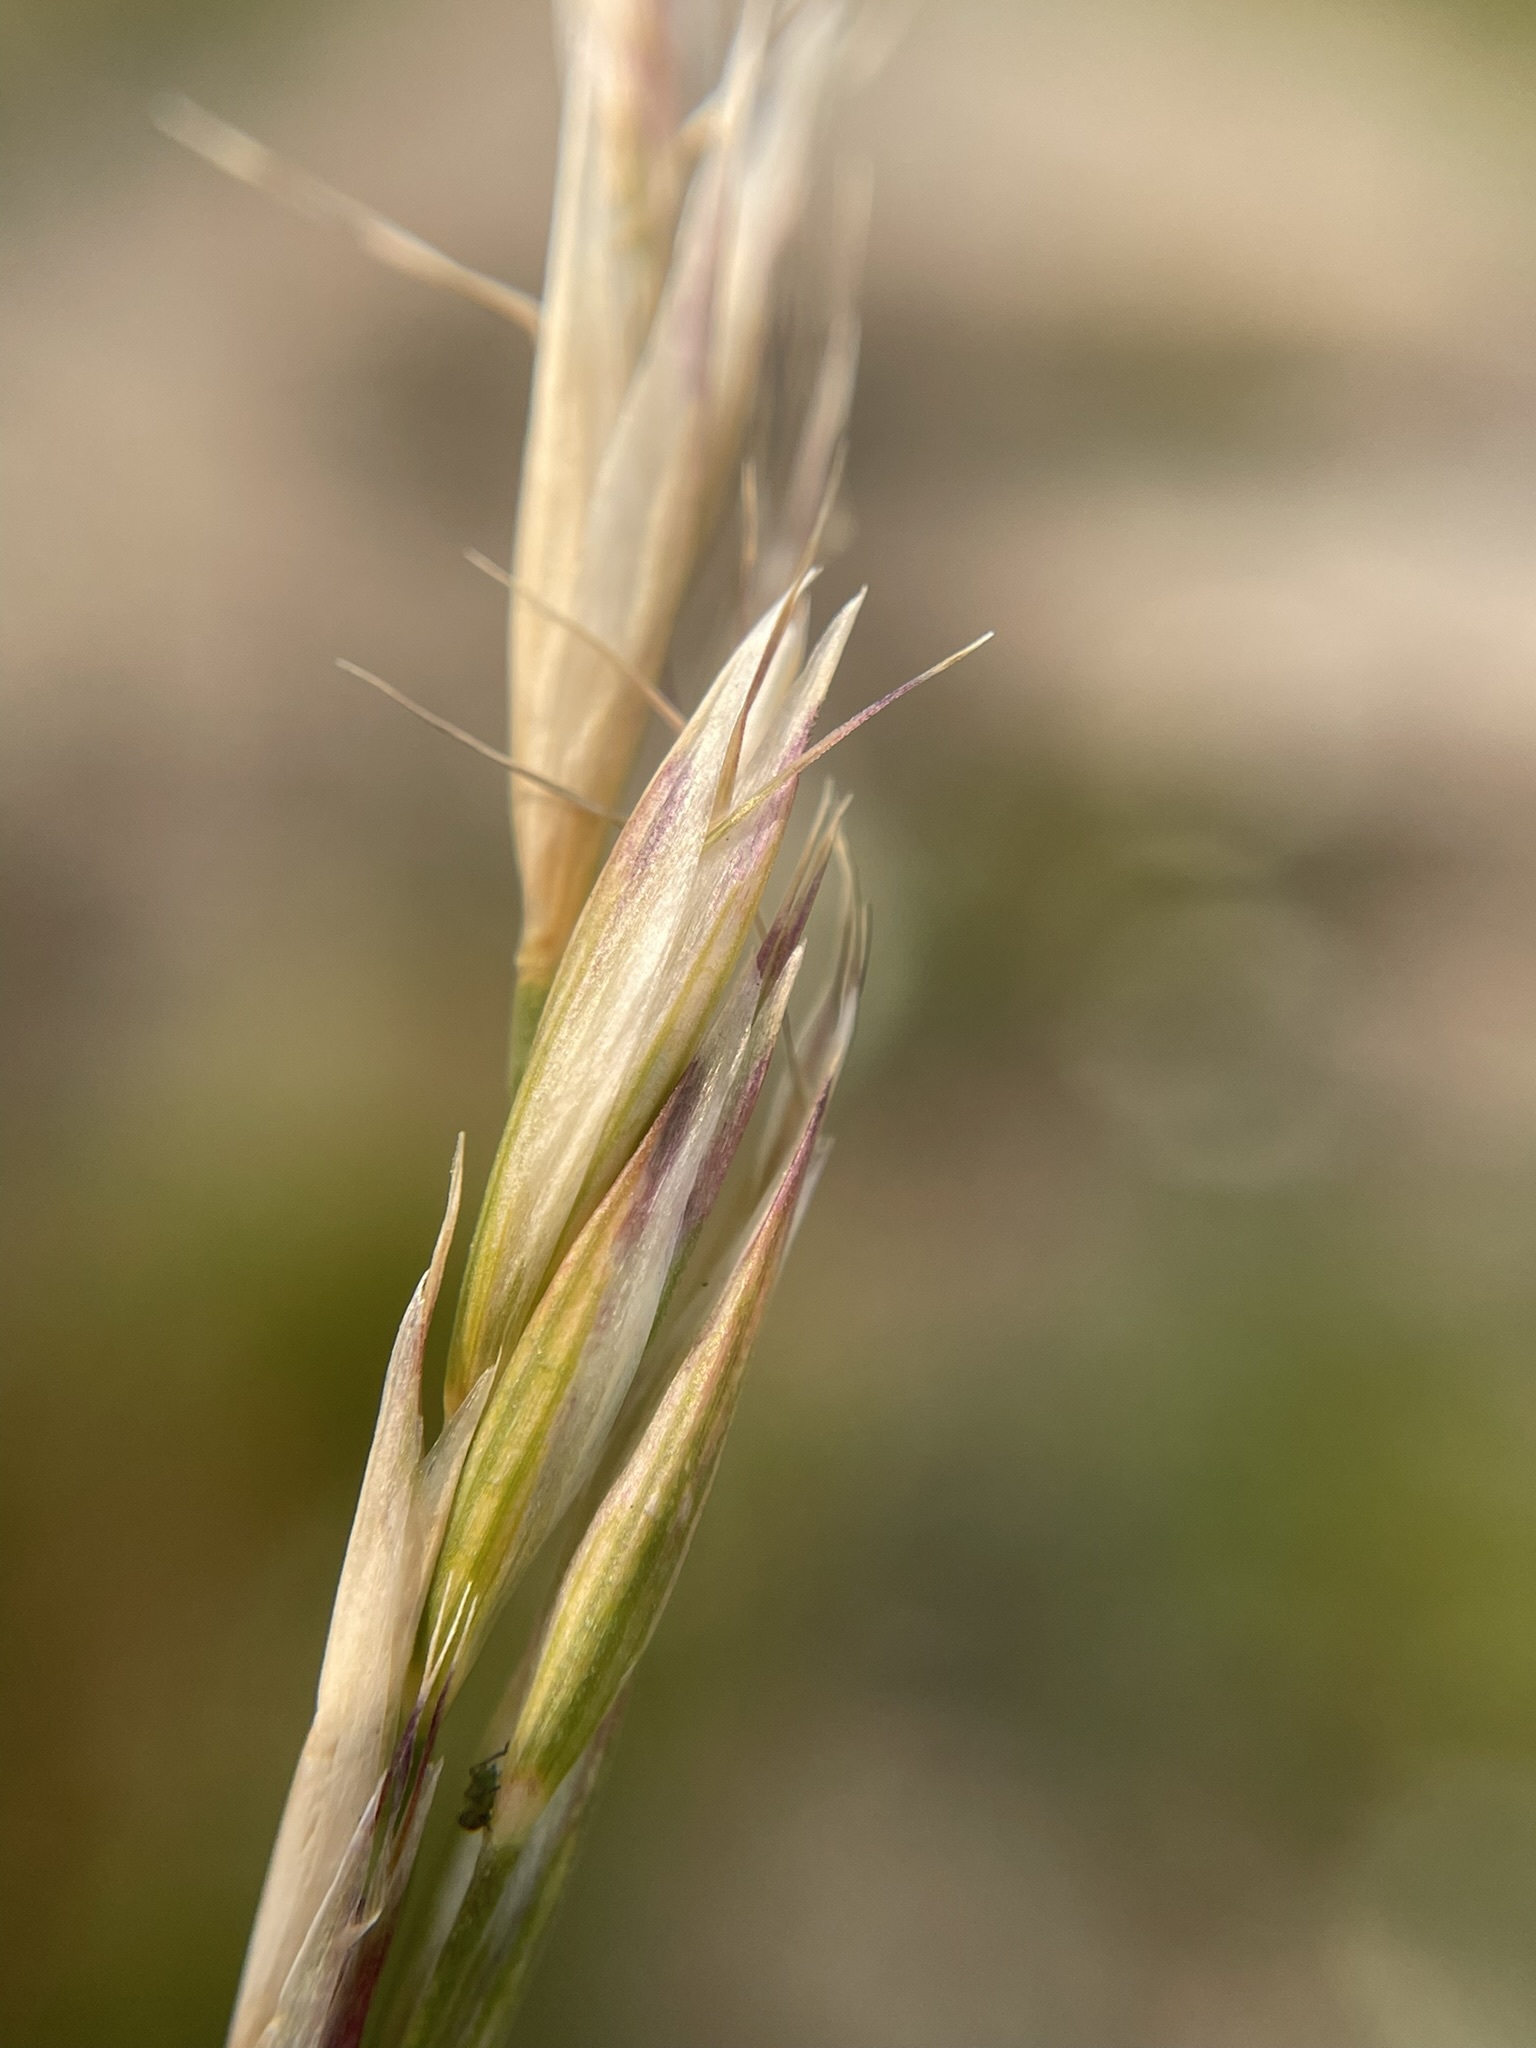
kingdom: Plantae
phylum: Tracheophyta
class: Liliopsida
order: Poales
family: Poaceae
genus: Danthonia
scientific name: Danthonia intermedia
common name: Intermediate oat grass
